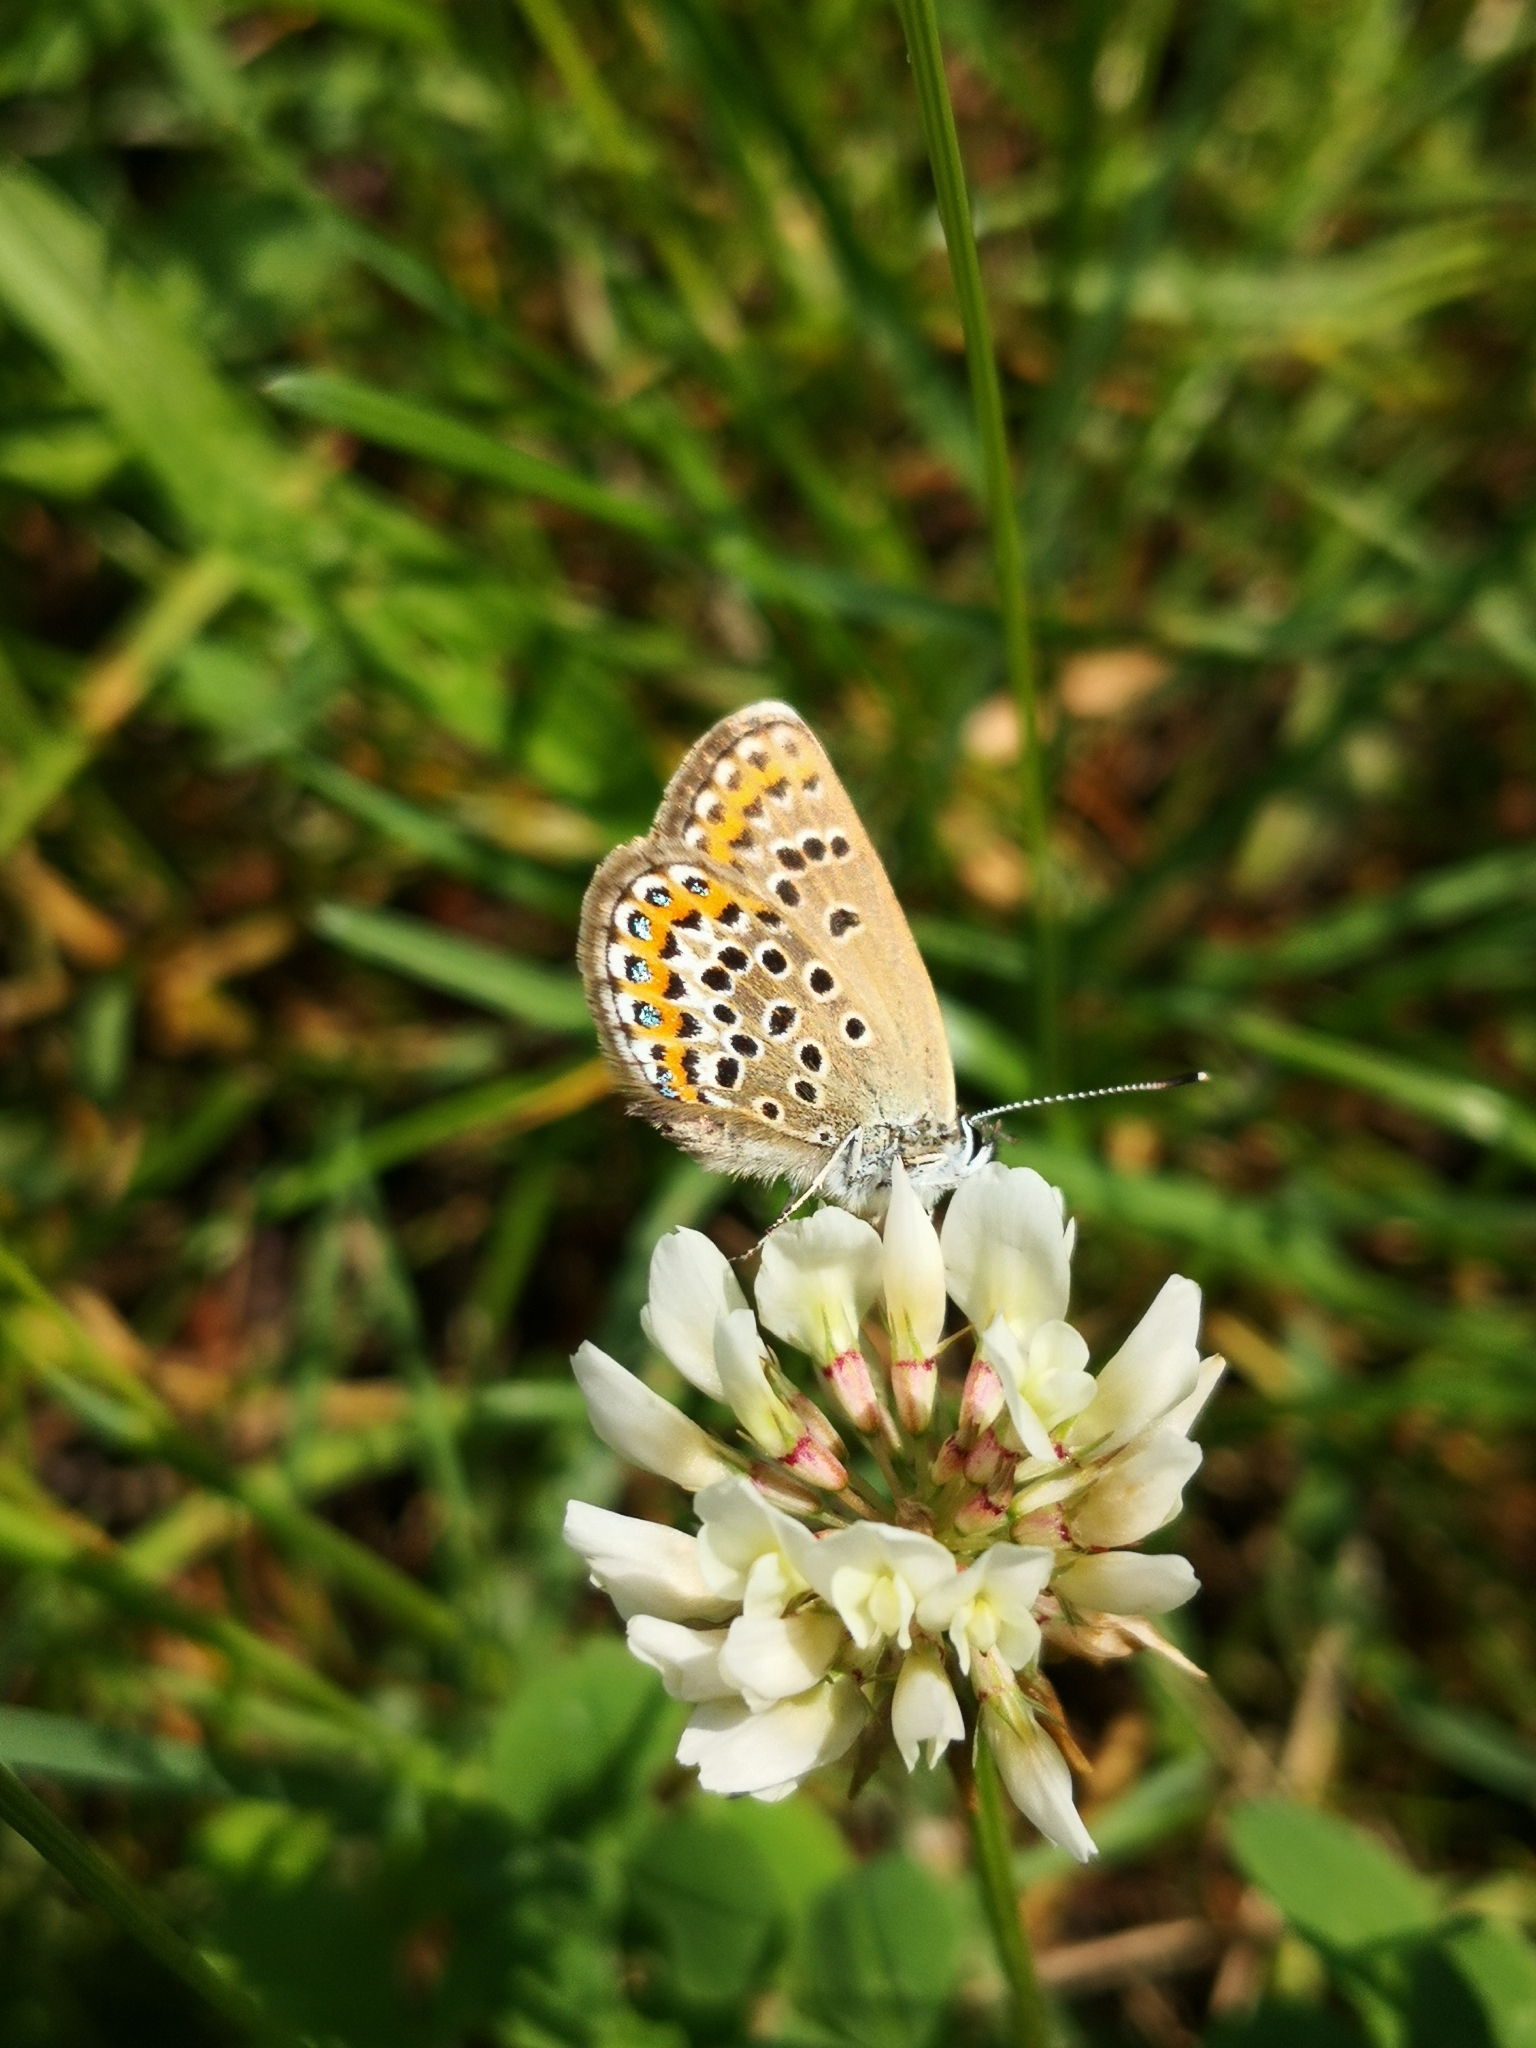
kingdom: Animalia
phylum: Arthropoda
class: Insecta
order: Lepidoptera
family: Lycaenidae
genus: Plebejus
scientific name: Plebejus argus
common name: Silver-studded blue
